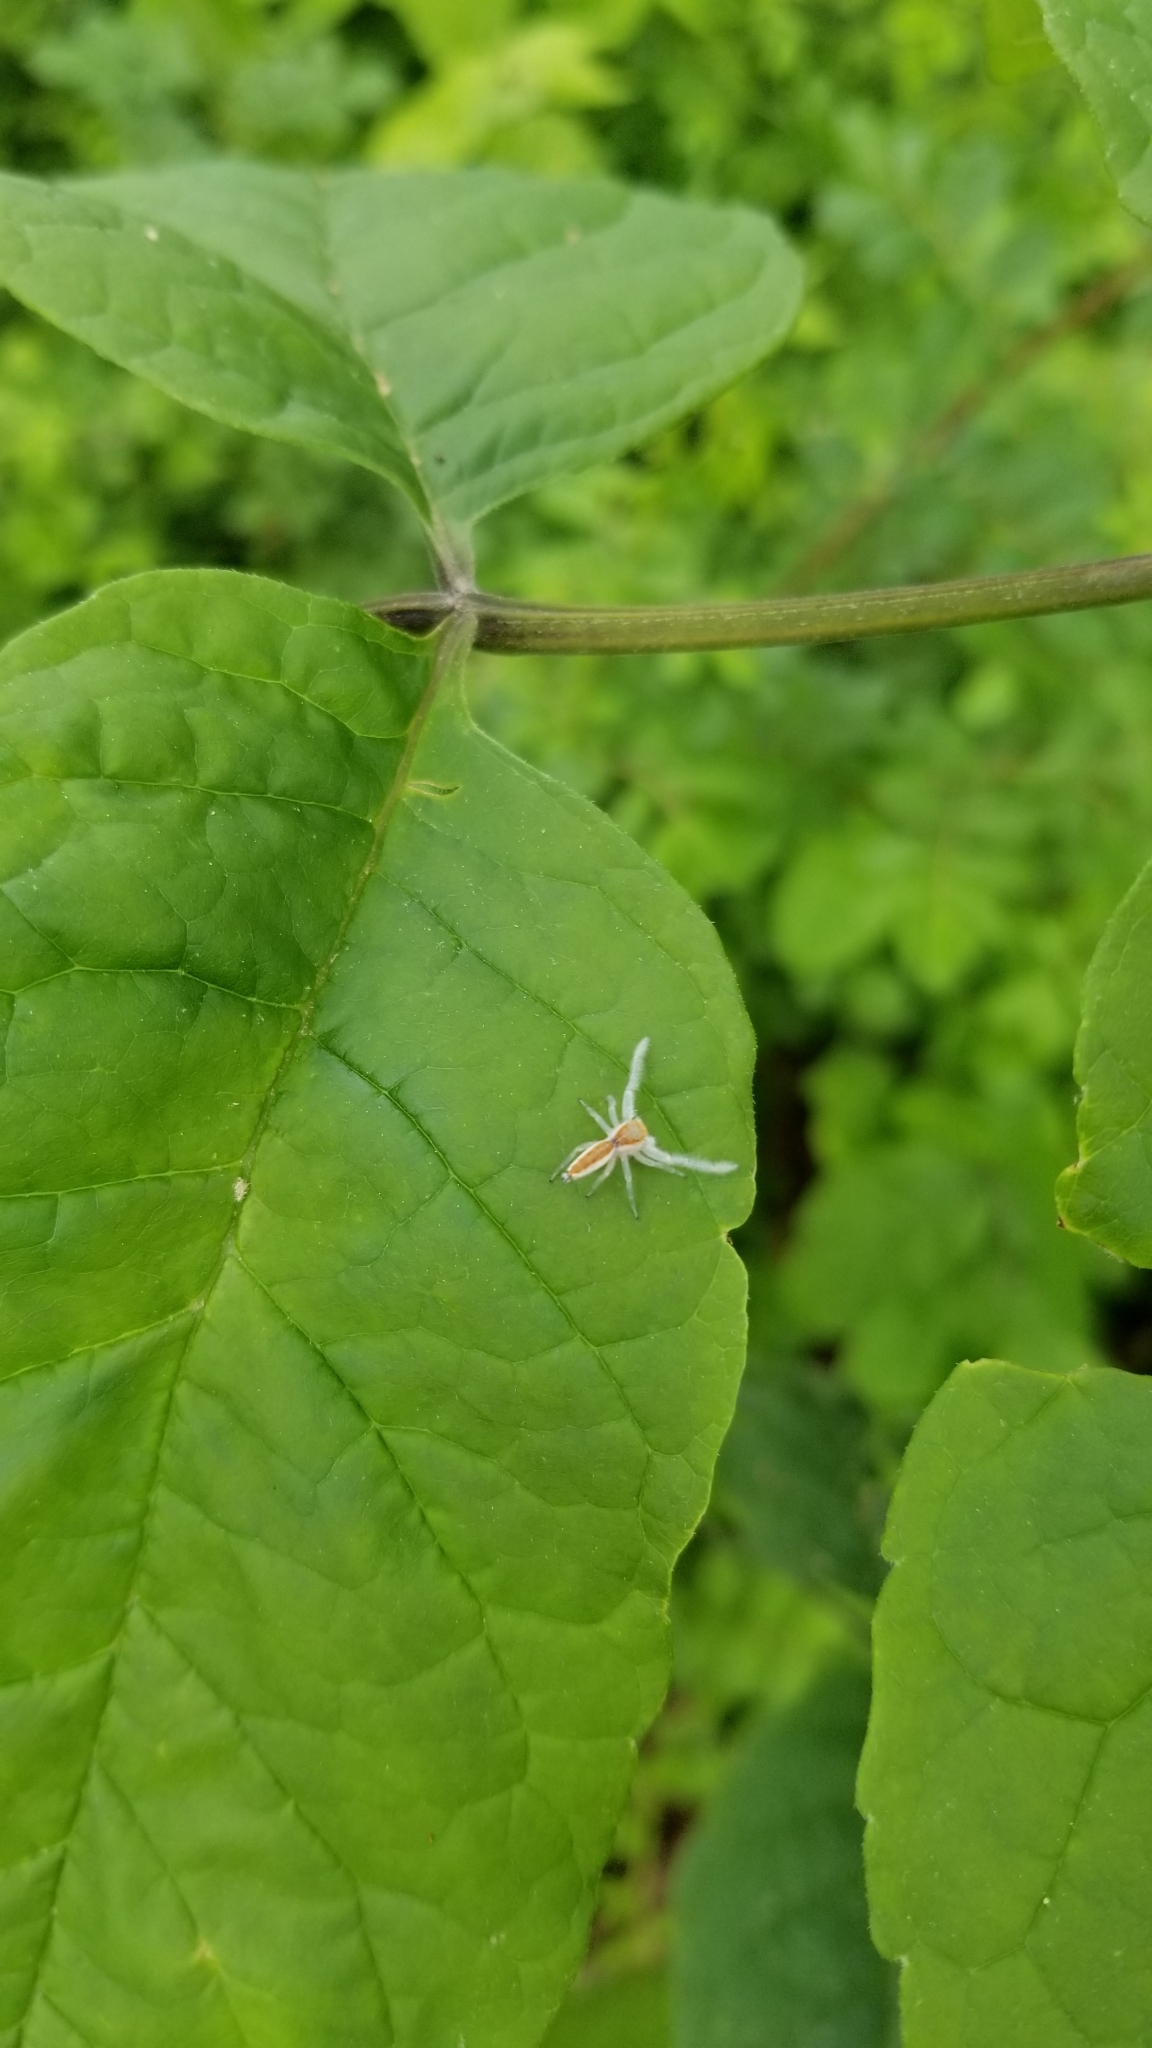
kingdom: Animalia
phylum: Arthropoda
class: Arachnida
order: Araneae
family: Salticidae
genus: Hentzia
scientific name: Hentzia mitrata
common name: White-jawed jumping spider
